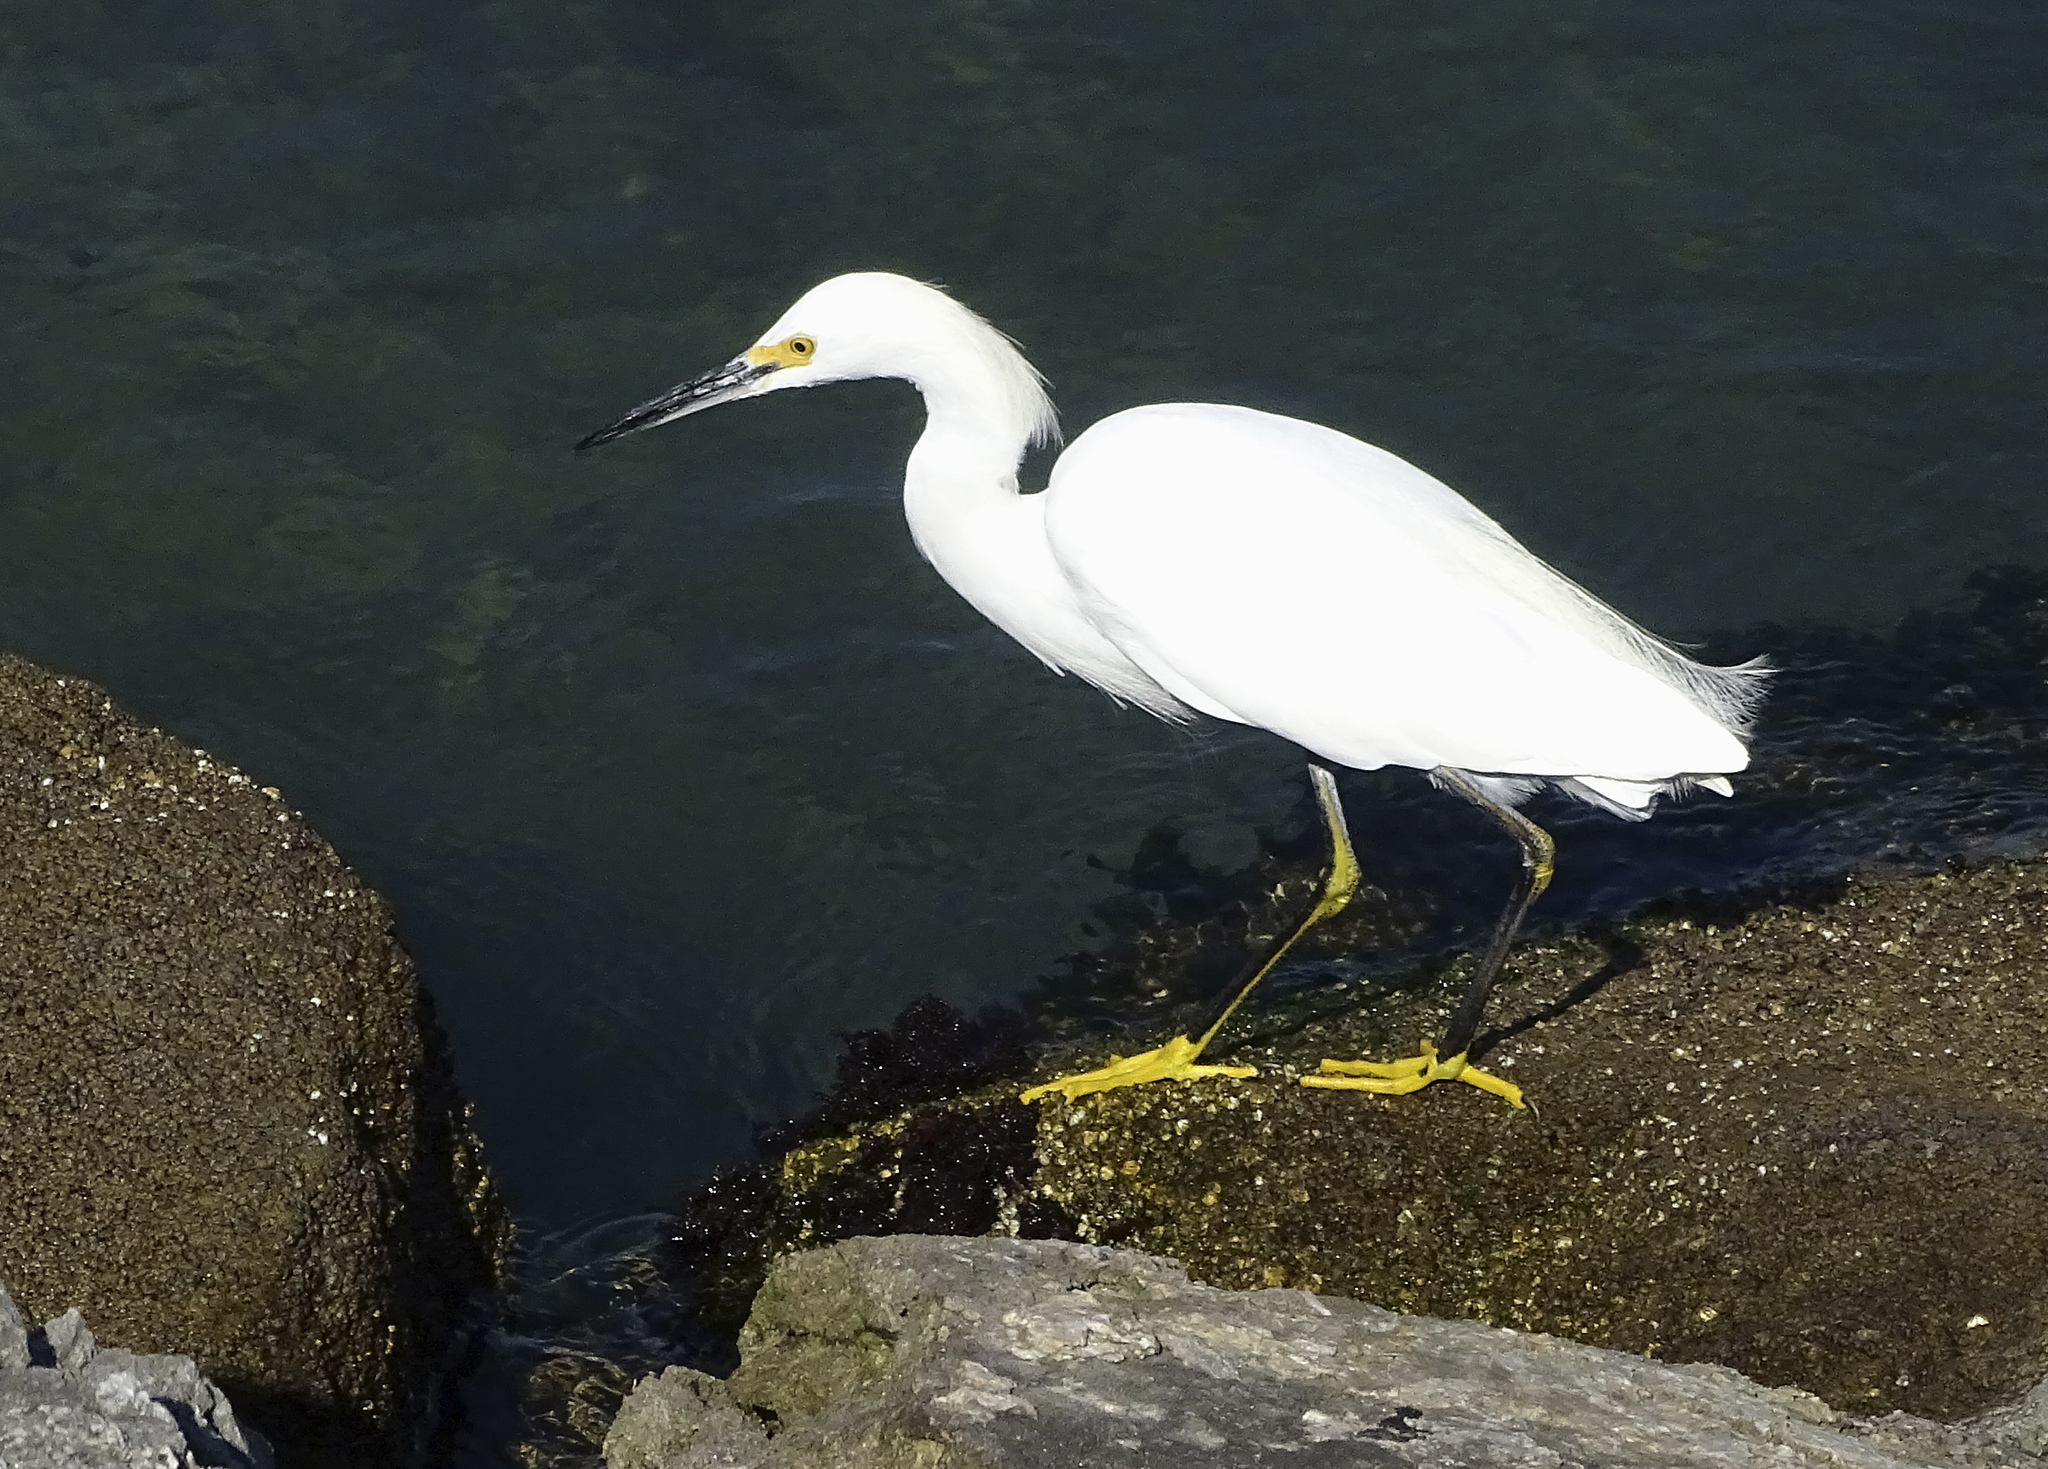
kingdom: Animalia
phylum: Chordata
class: Aves
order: Pelecaniformes
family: Ardeidae
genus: Egretta
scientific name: Egretta thula
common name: Snowy egret
